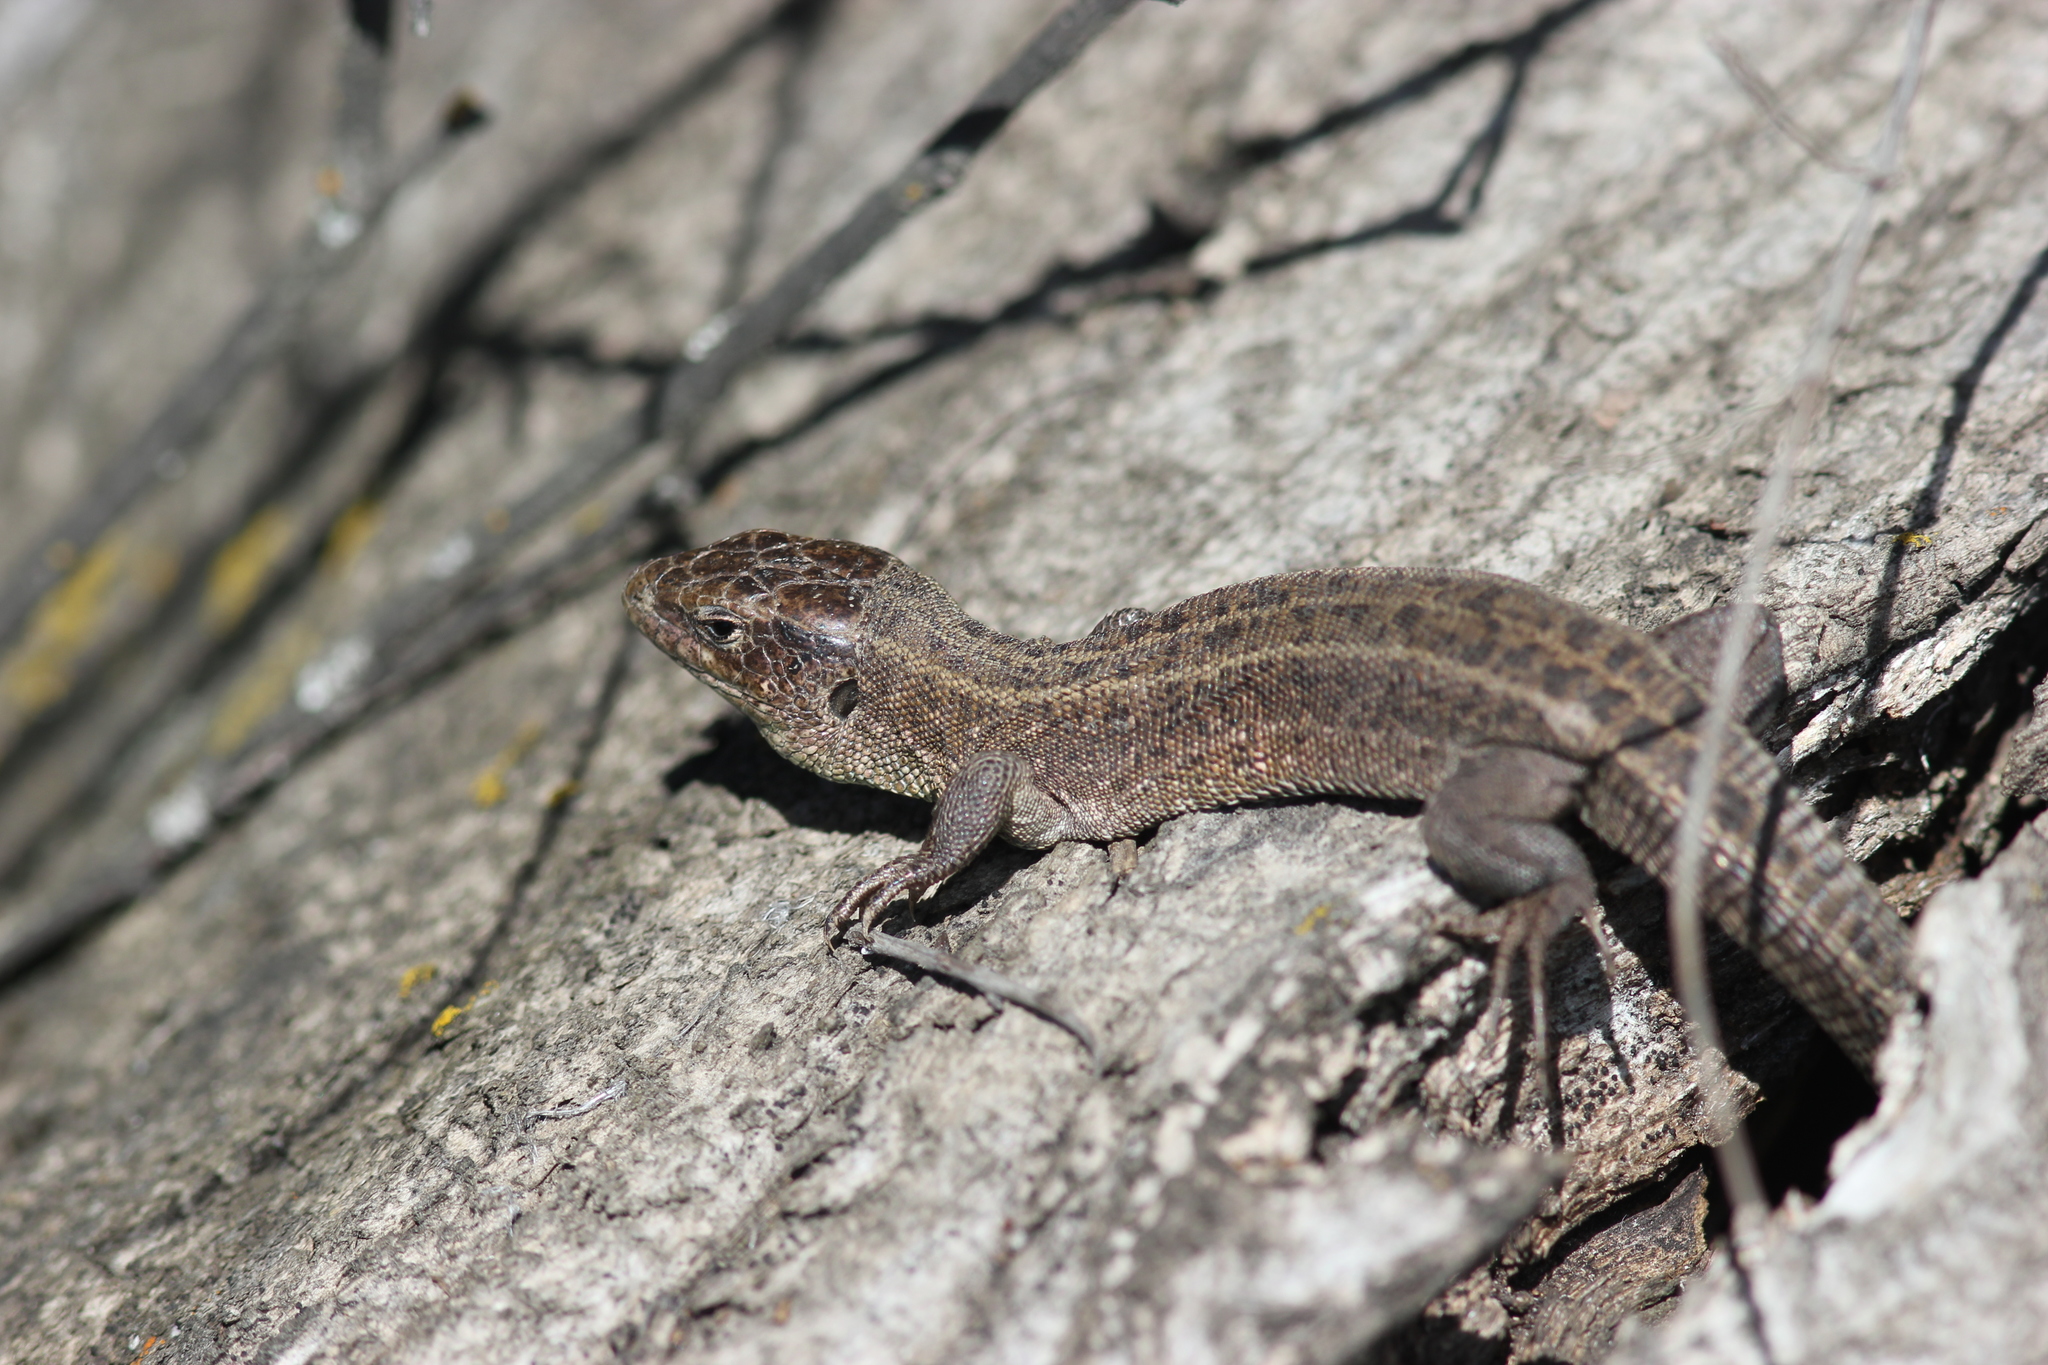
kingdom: Animalia
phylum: Chordata
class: Squamata
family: Lacertidae
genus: Lacerta
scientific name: Lacerta agilis
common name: Sand lizard
